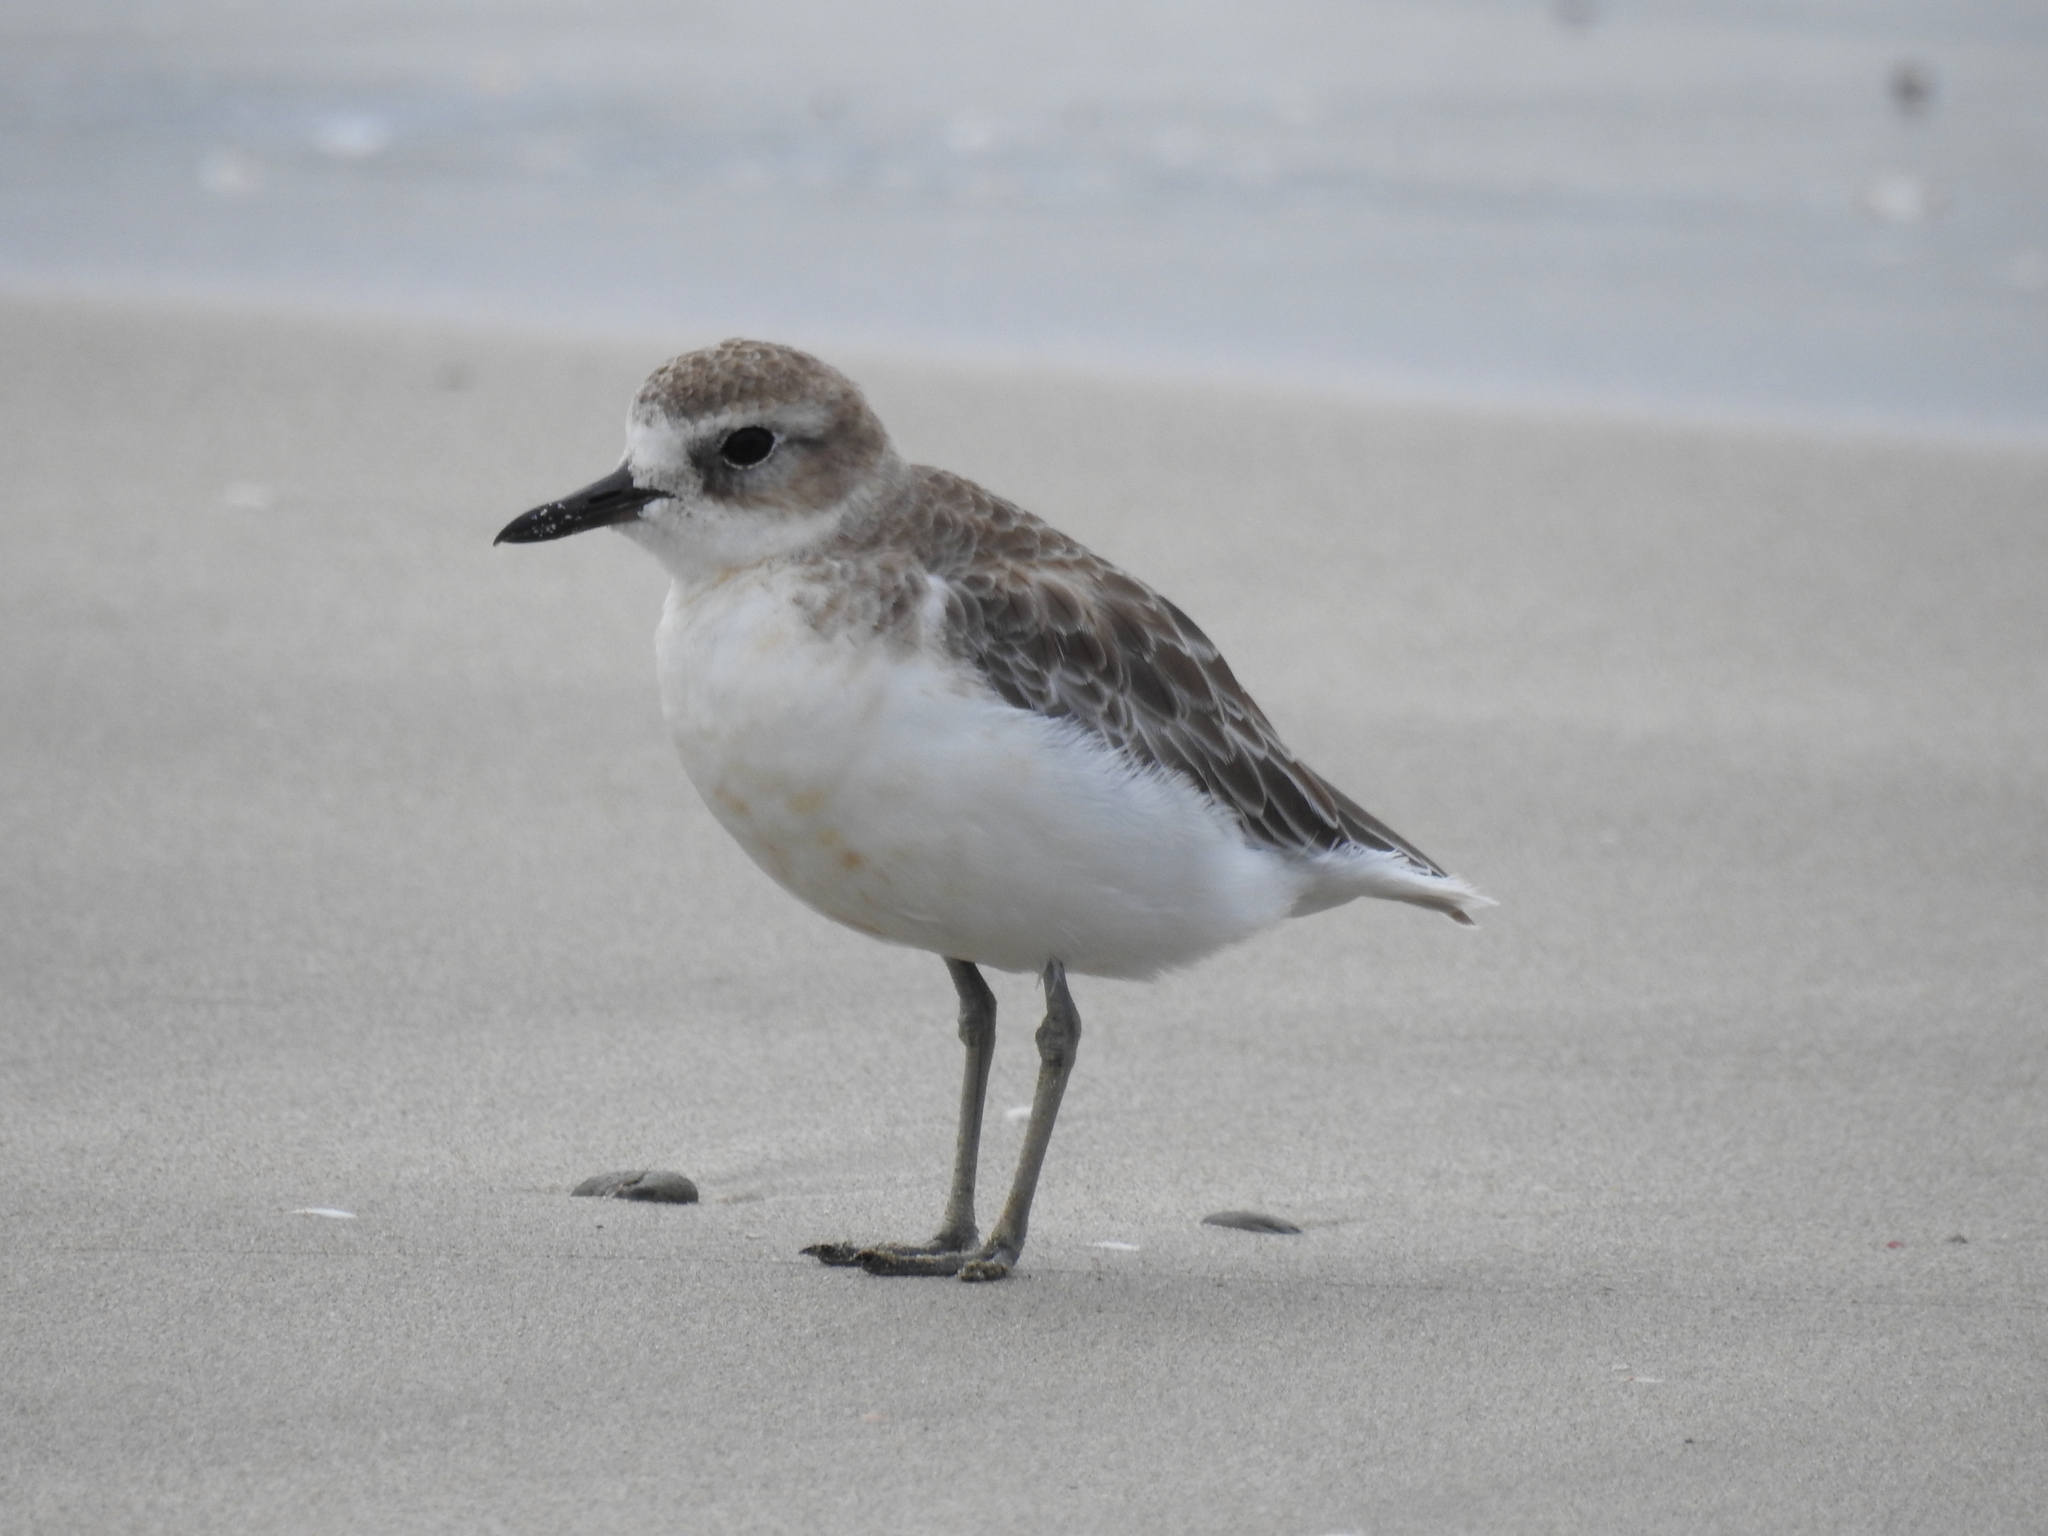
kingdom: Animalia
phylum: Chordata
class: Aves
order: Charadriiformes
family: Charadriidae
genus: Anarhynchus
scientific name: Anarhynchus
